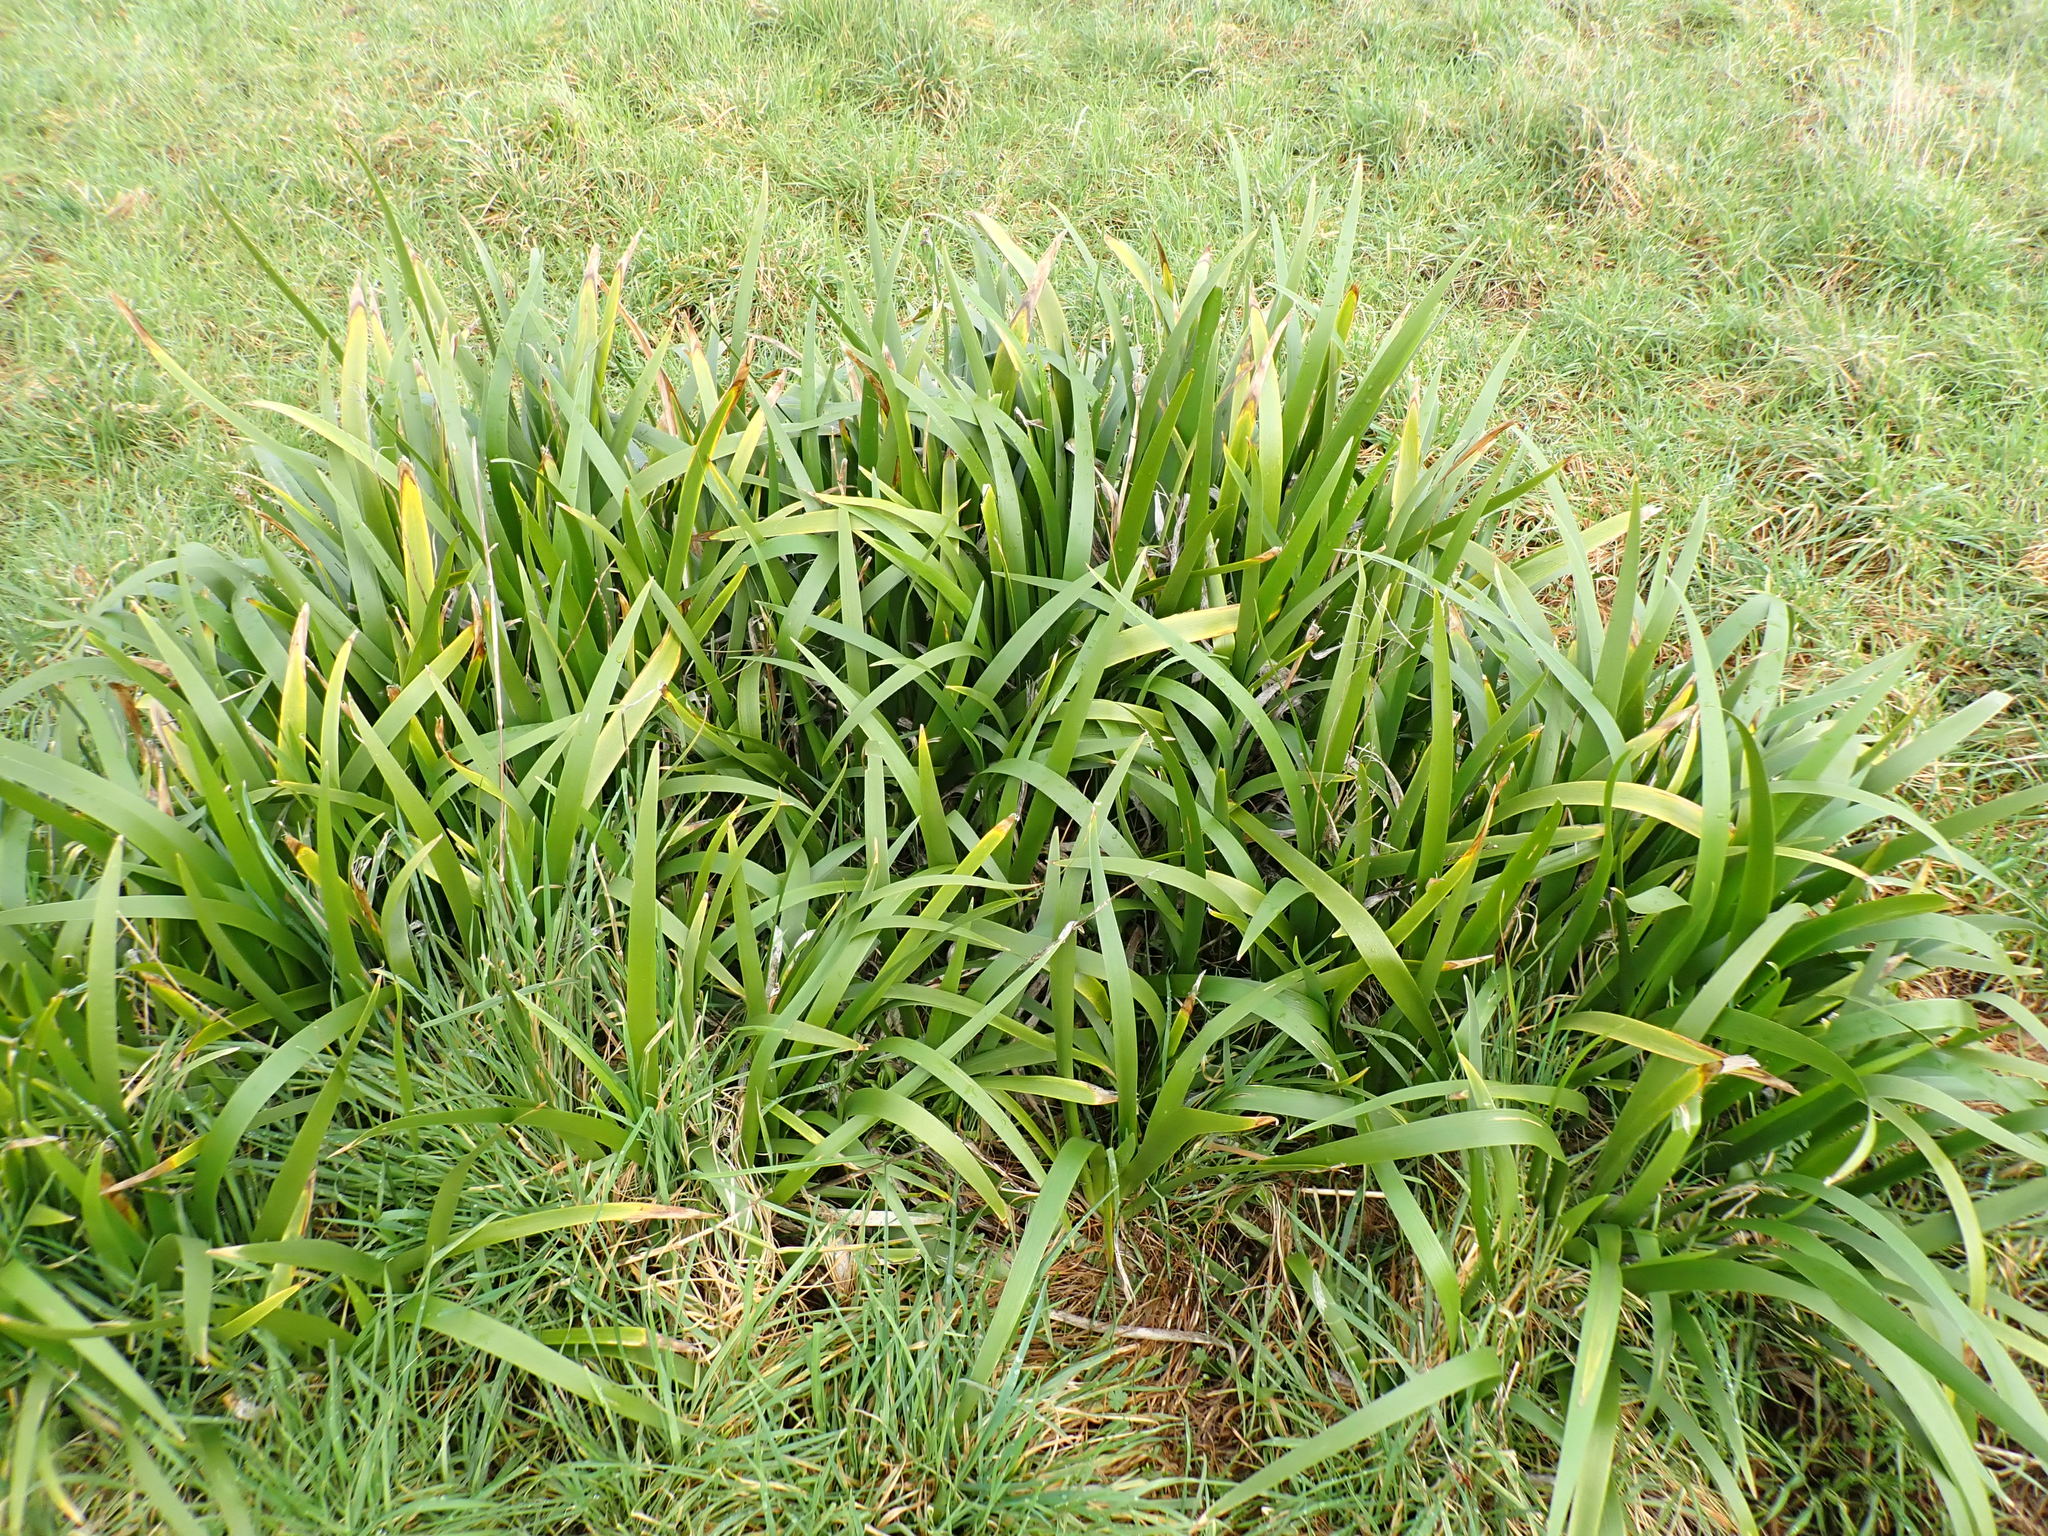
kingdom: Plantae
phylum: Tracheophyta
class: Liliopsida
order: Asparagales
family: Iridaceae
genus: Iris
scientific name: Iris foetidissima
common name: Stinking iris
